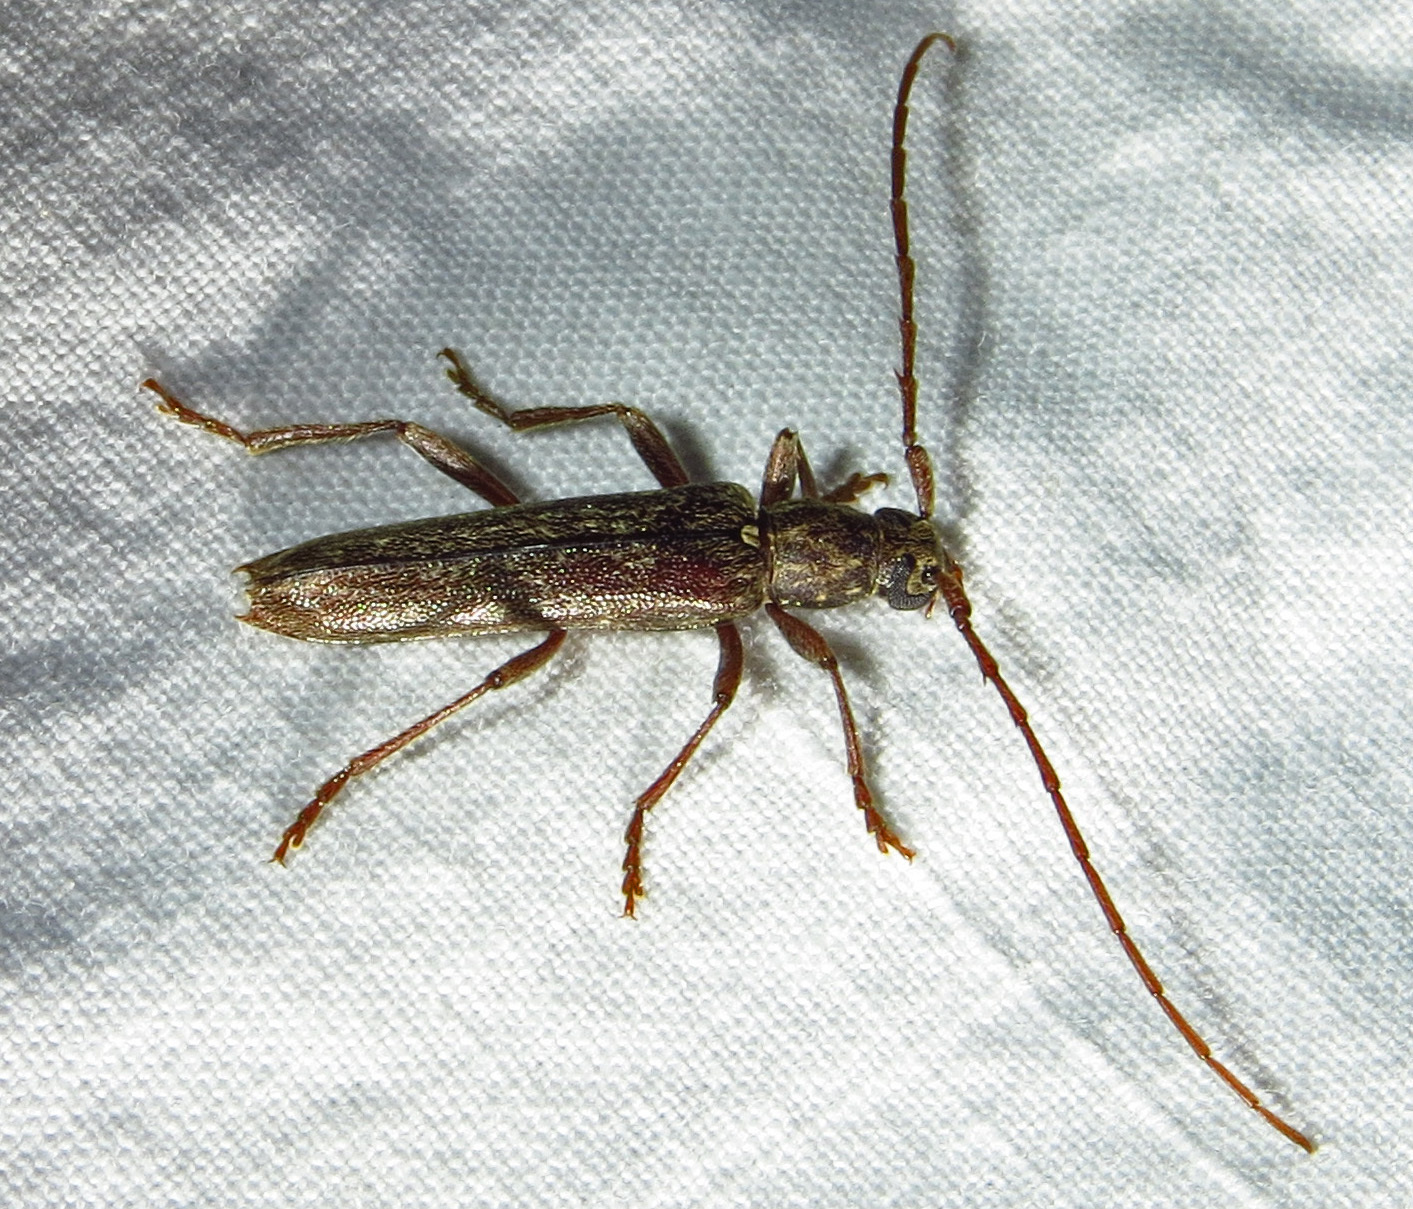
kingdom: Animalia
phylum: Arthropoda
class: Insecta
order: Coleoptera
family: Cerambycidae
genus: Anelaphus
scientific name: Anelaphus villosus
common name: Twig pruner
